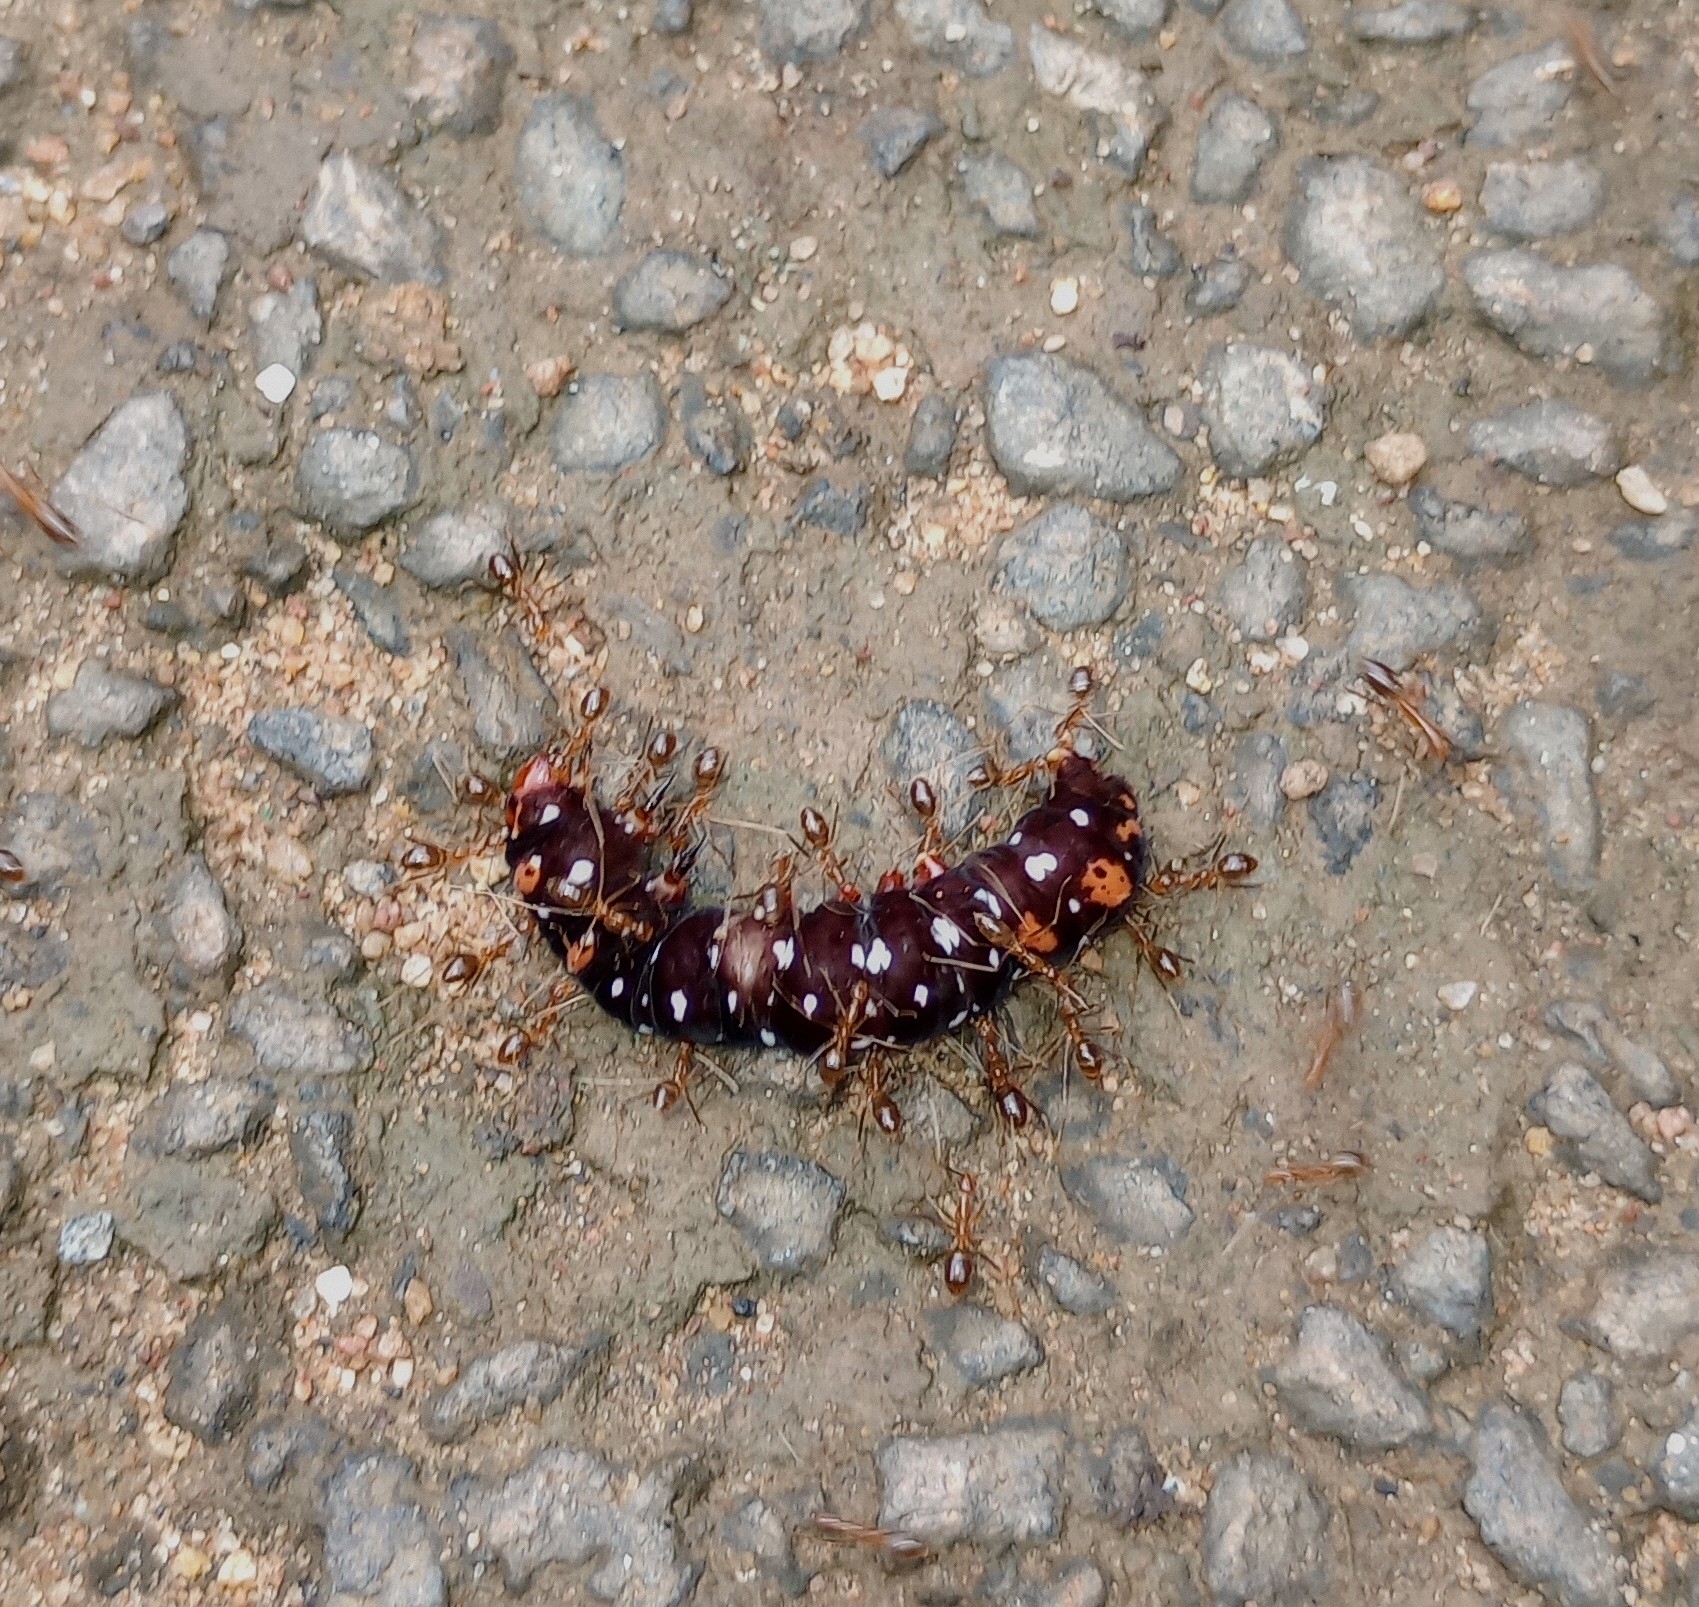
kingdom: Animalia
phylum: Arthropoda
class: Insecta
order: Lepidoptera
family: Noctuidae
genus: Polytela
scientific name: Polytela gloriosae
